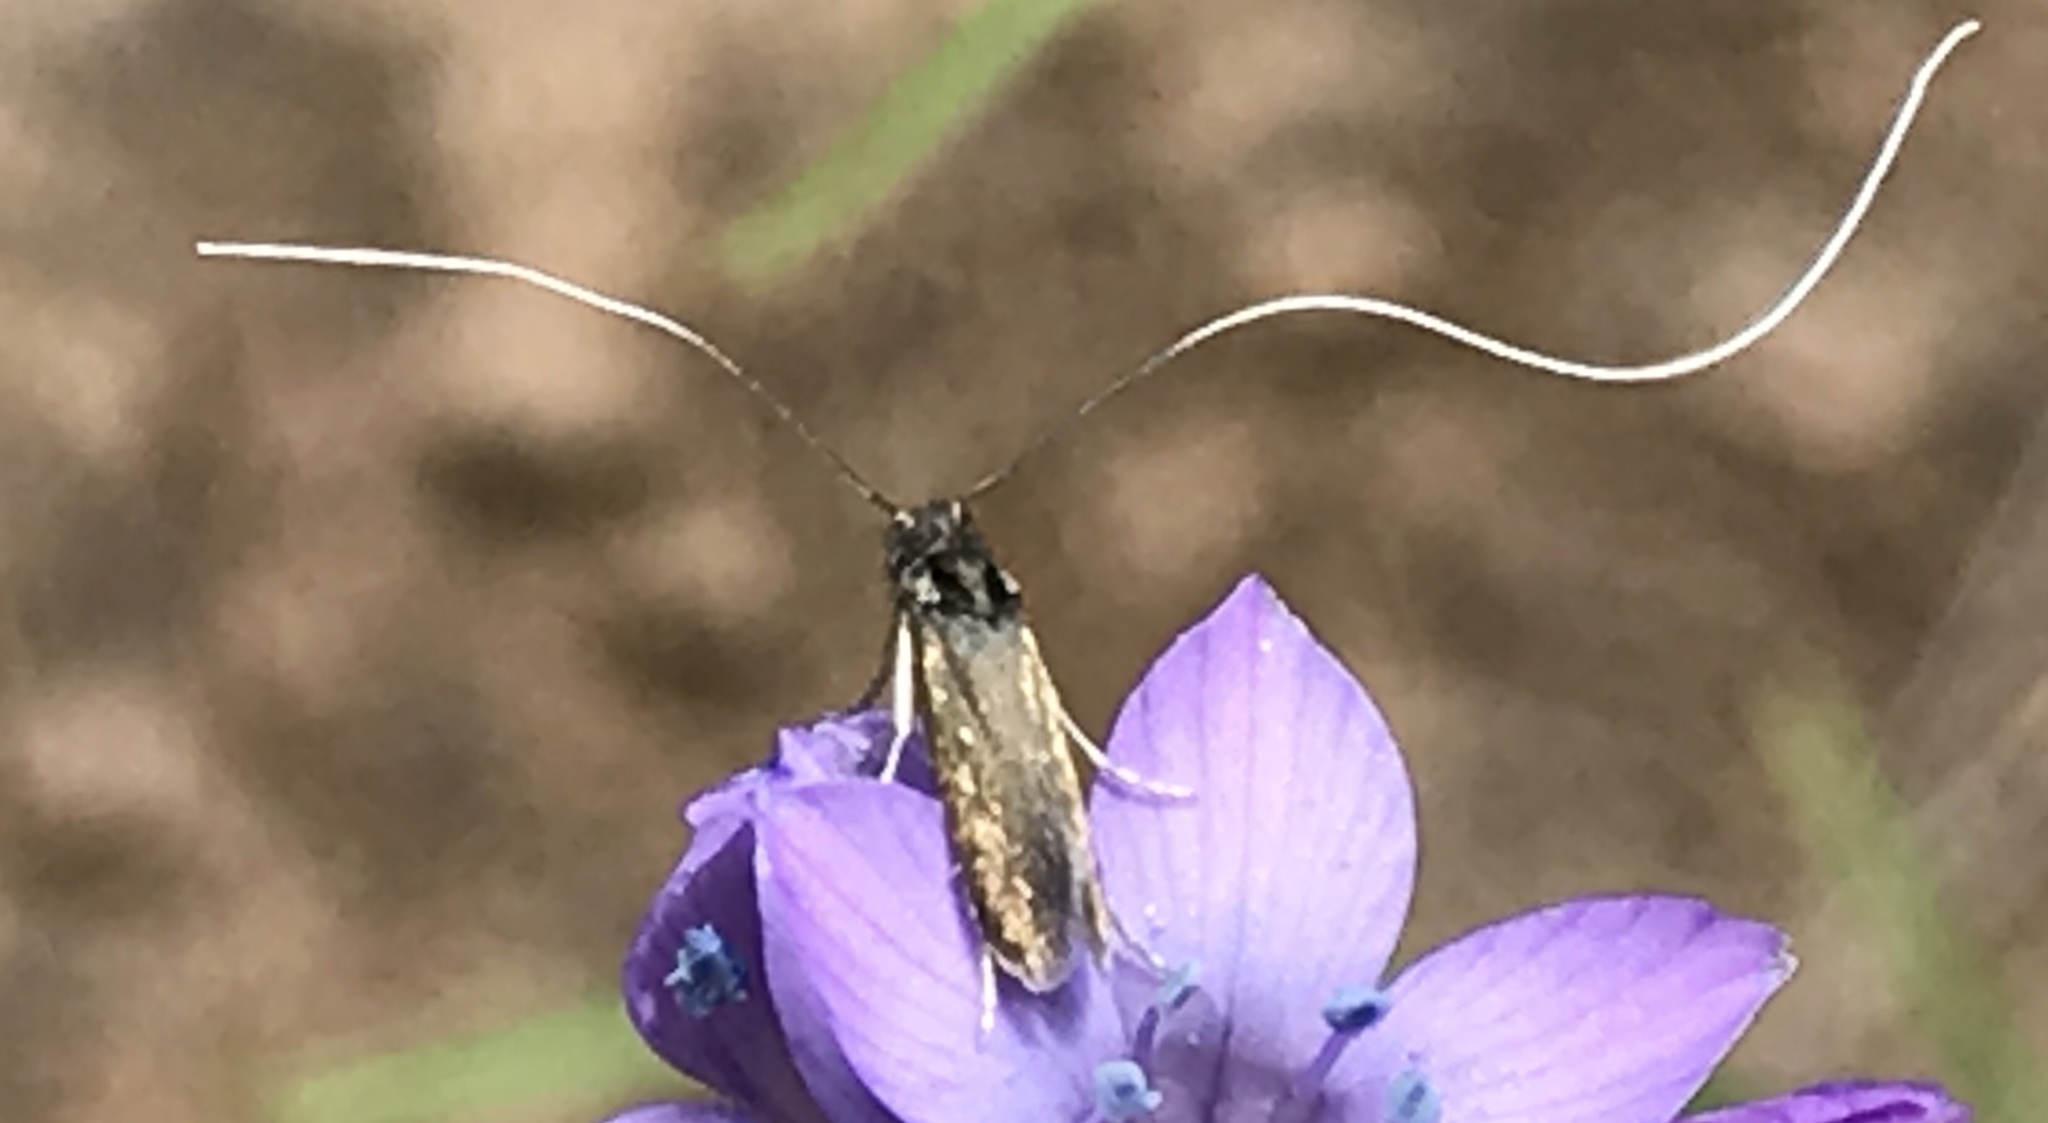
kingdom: Animalia
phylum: Arthropoda
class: Insecta
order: Lepidoptera
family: Adelidae
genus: Adela
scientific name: Adela singulella
